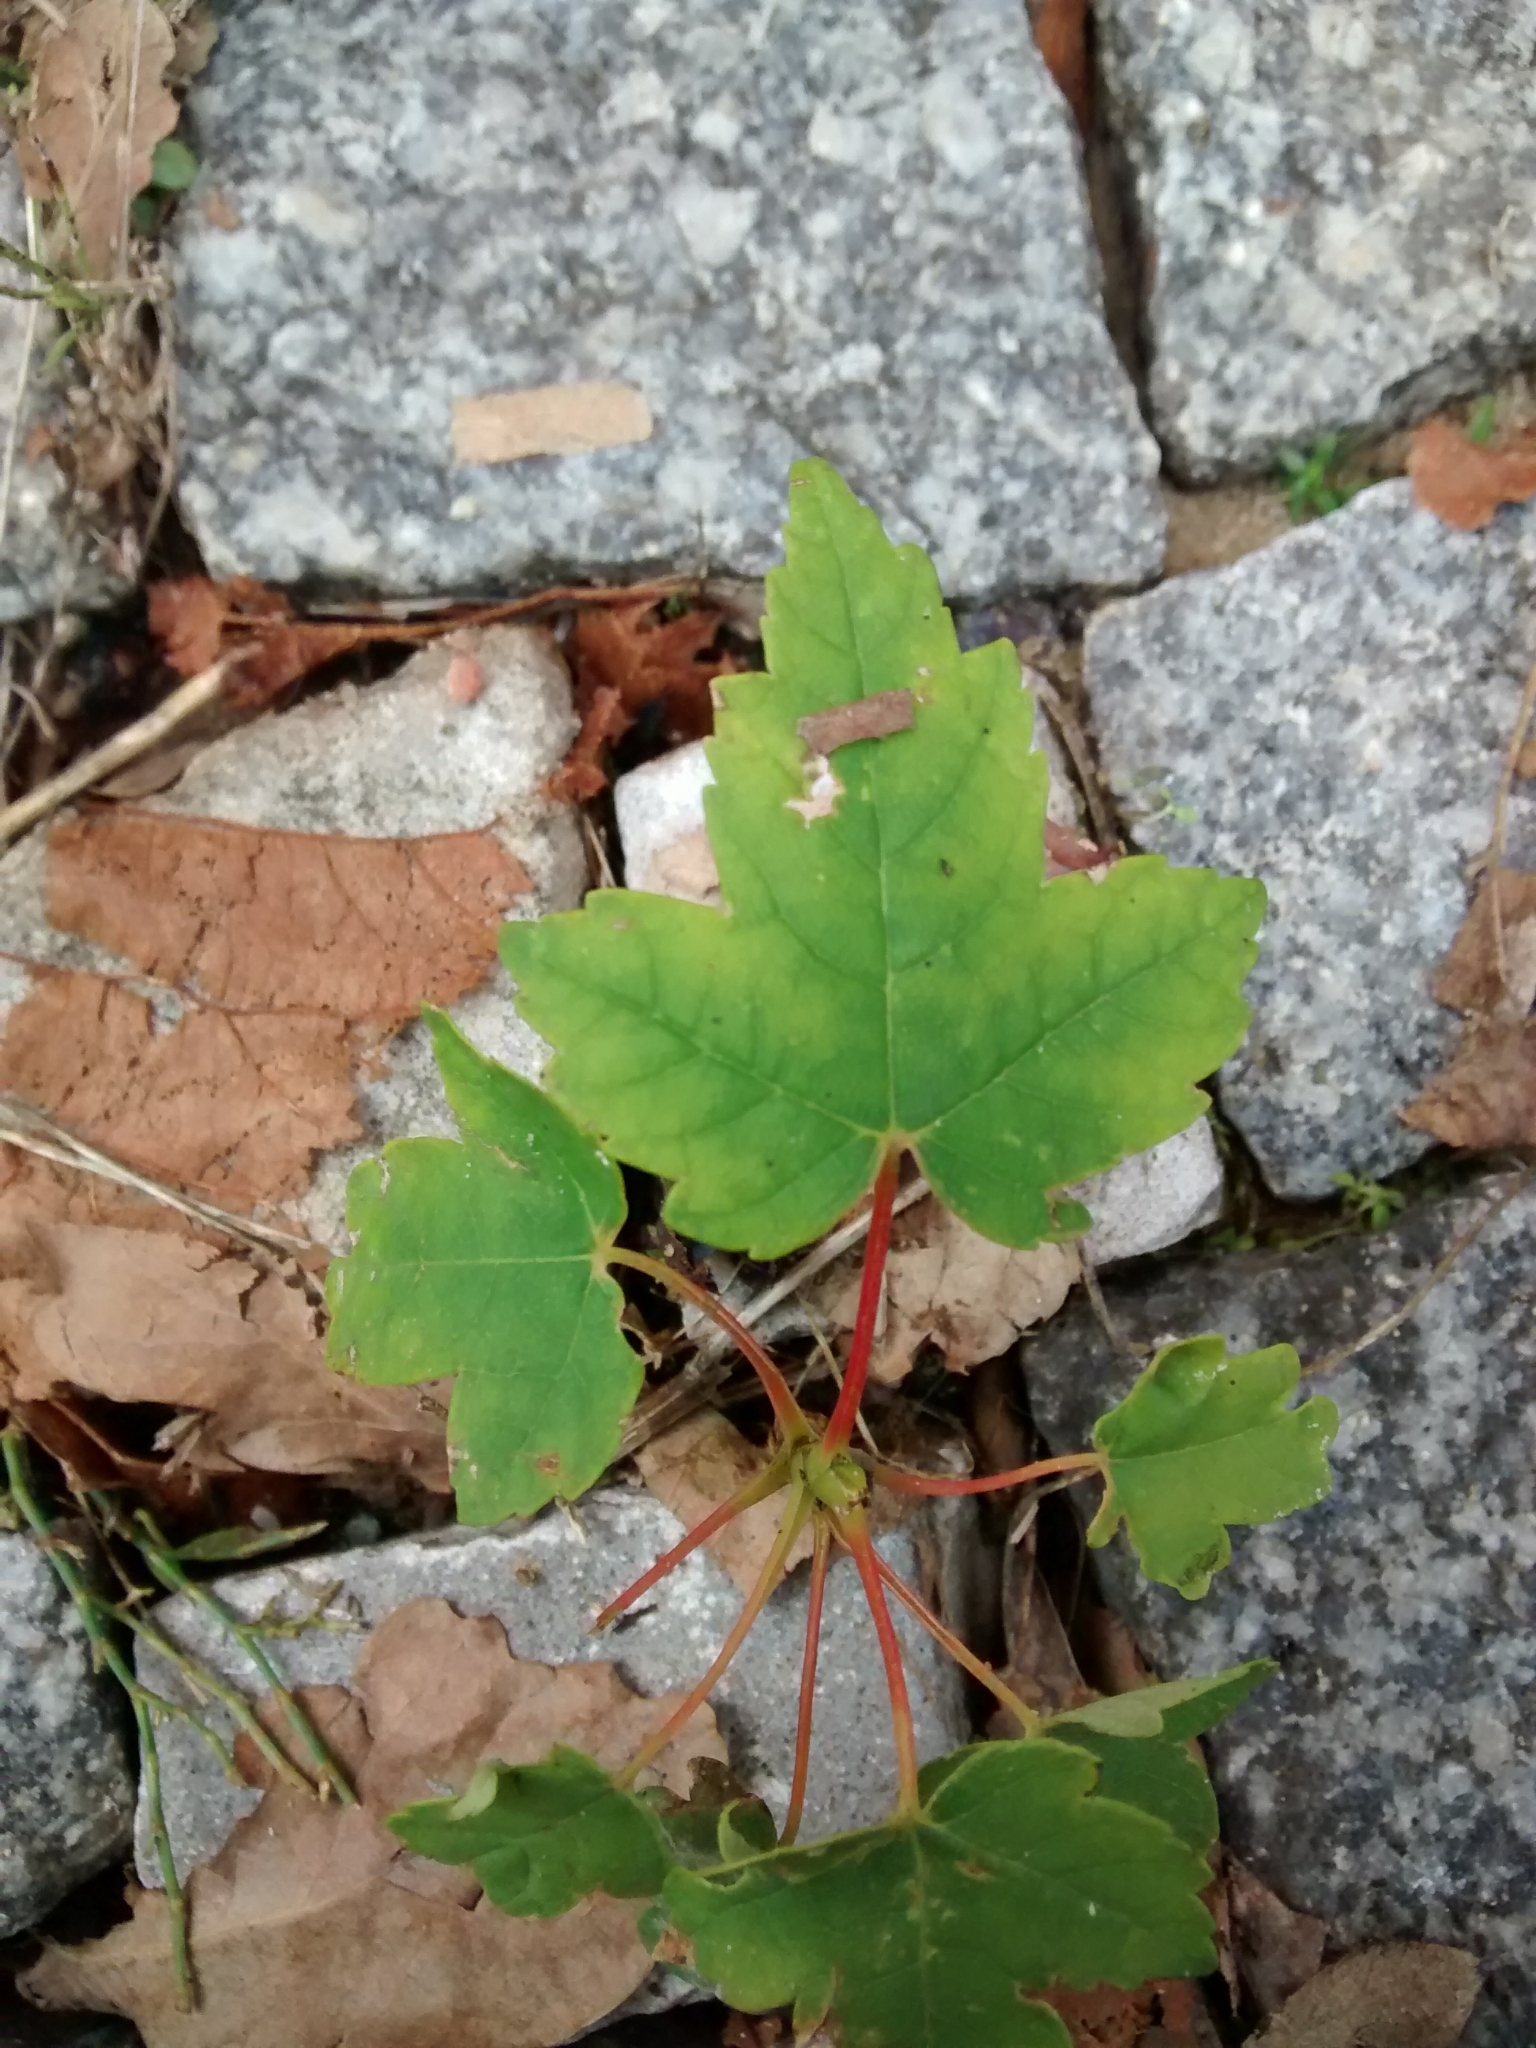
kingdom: Plantae
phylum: Tracheophyta
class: Magnoliopsida
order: Sapindales
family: Sapindaceae
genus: Acer
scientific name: Acer pseudoplatanus
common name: Sycamore
